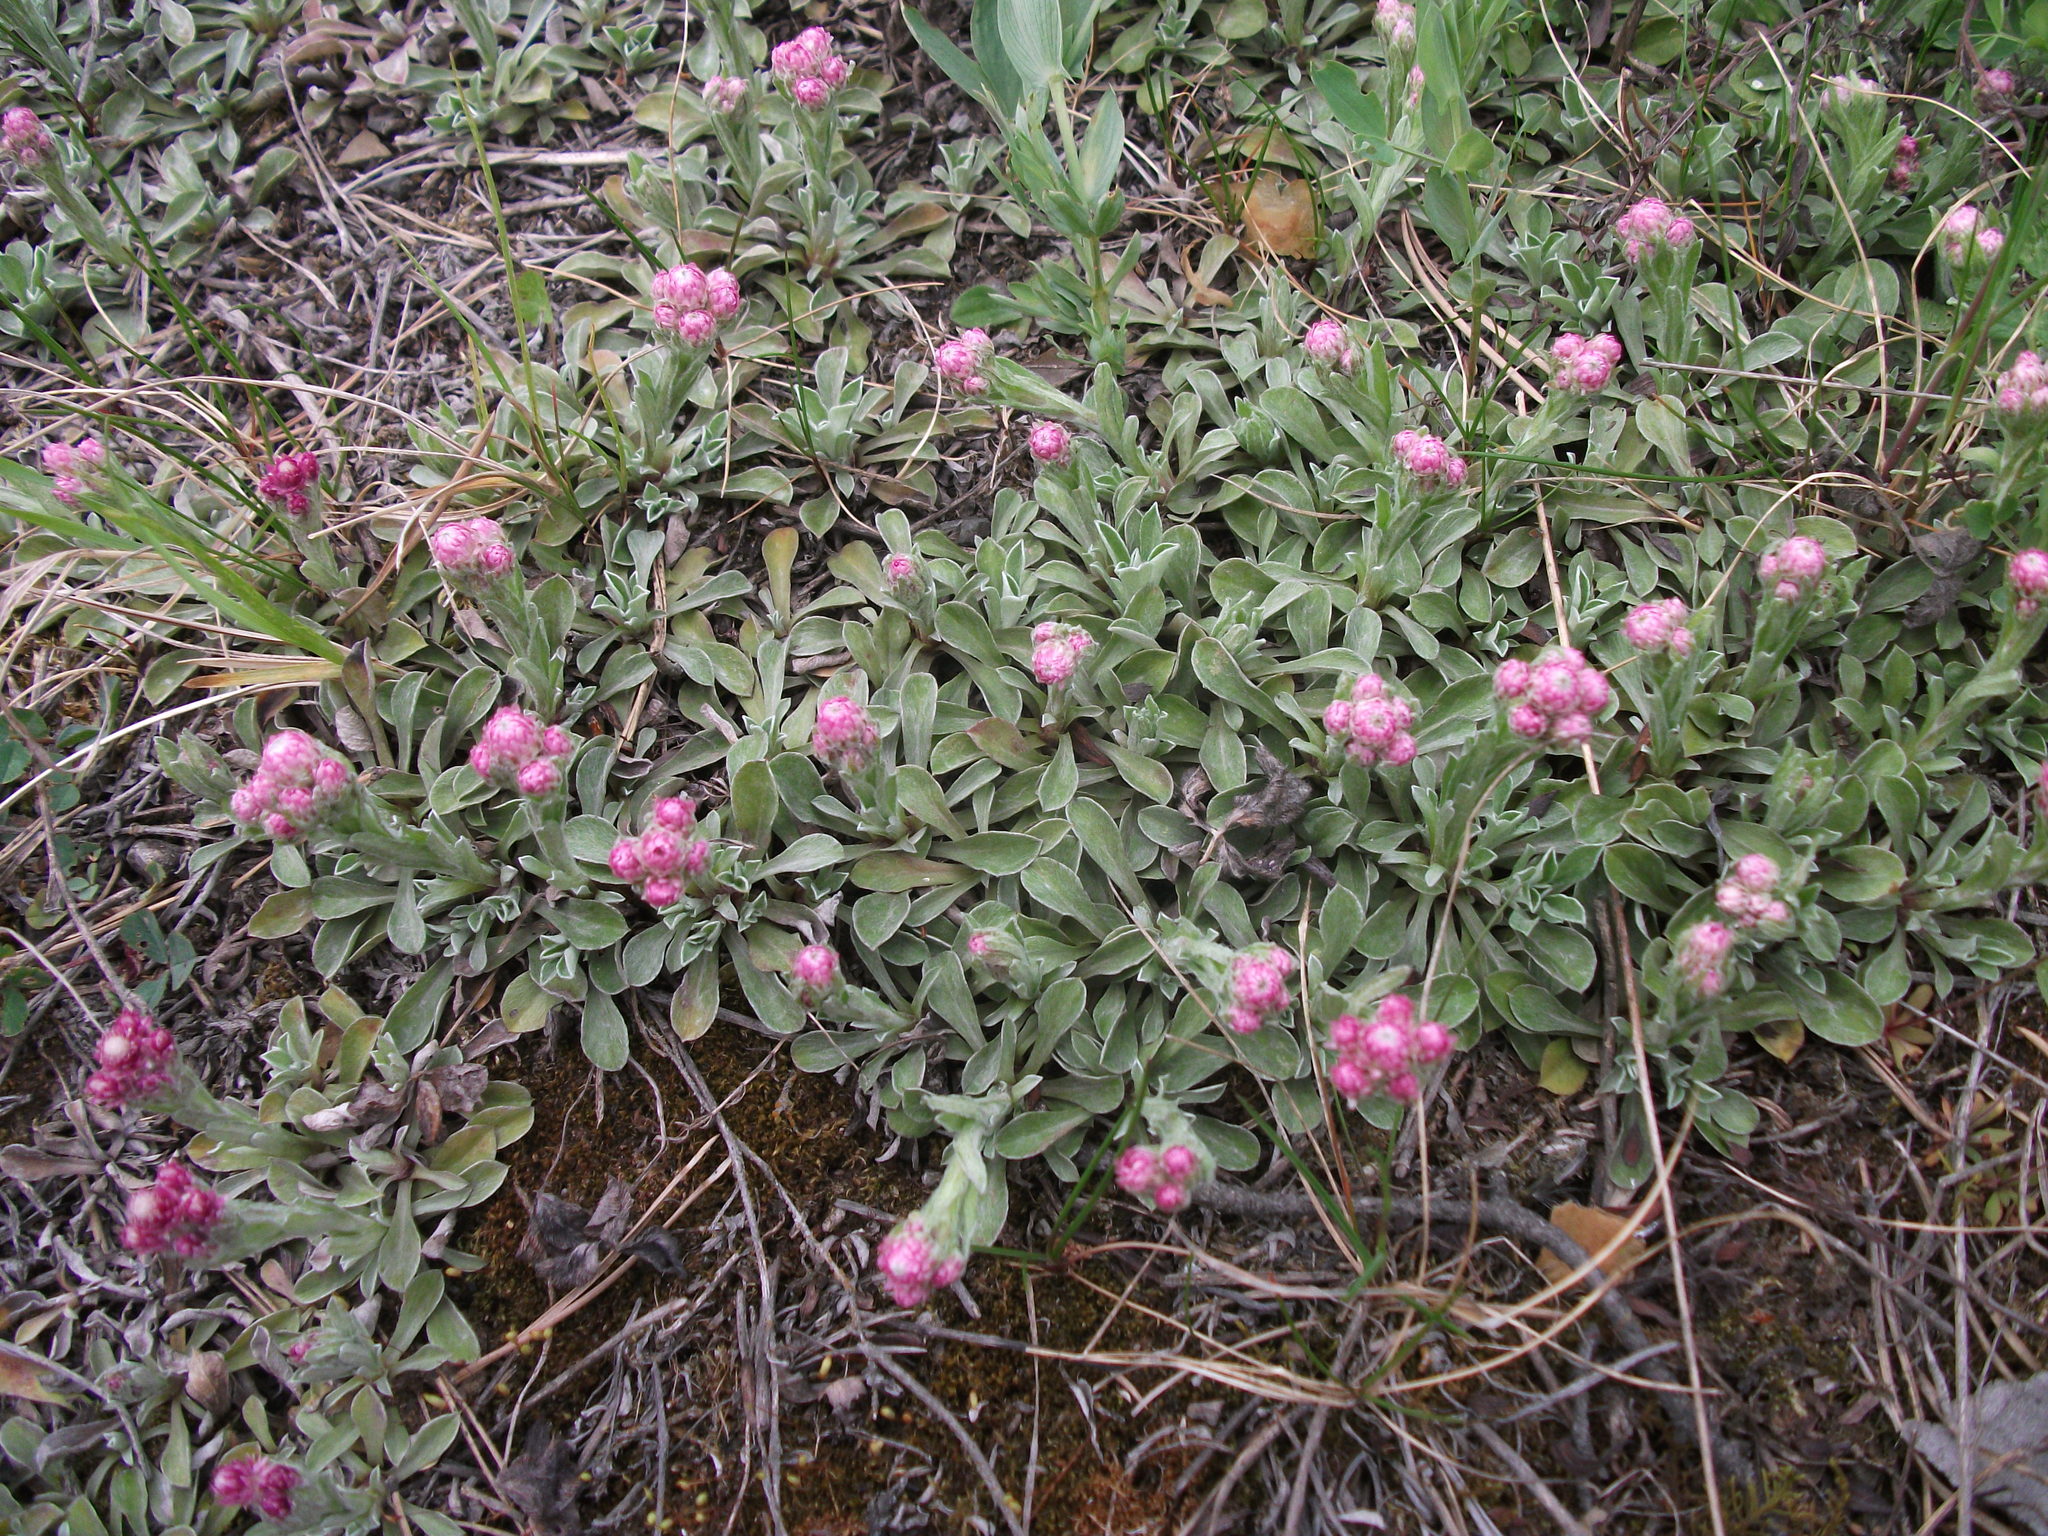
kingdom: Plantae
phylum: Tracheophyta
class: Magnoliopsida
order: Asterales
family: Asteraceae
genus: Antennaria
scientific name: Antennaria dioica
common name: Mountain everlasting
